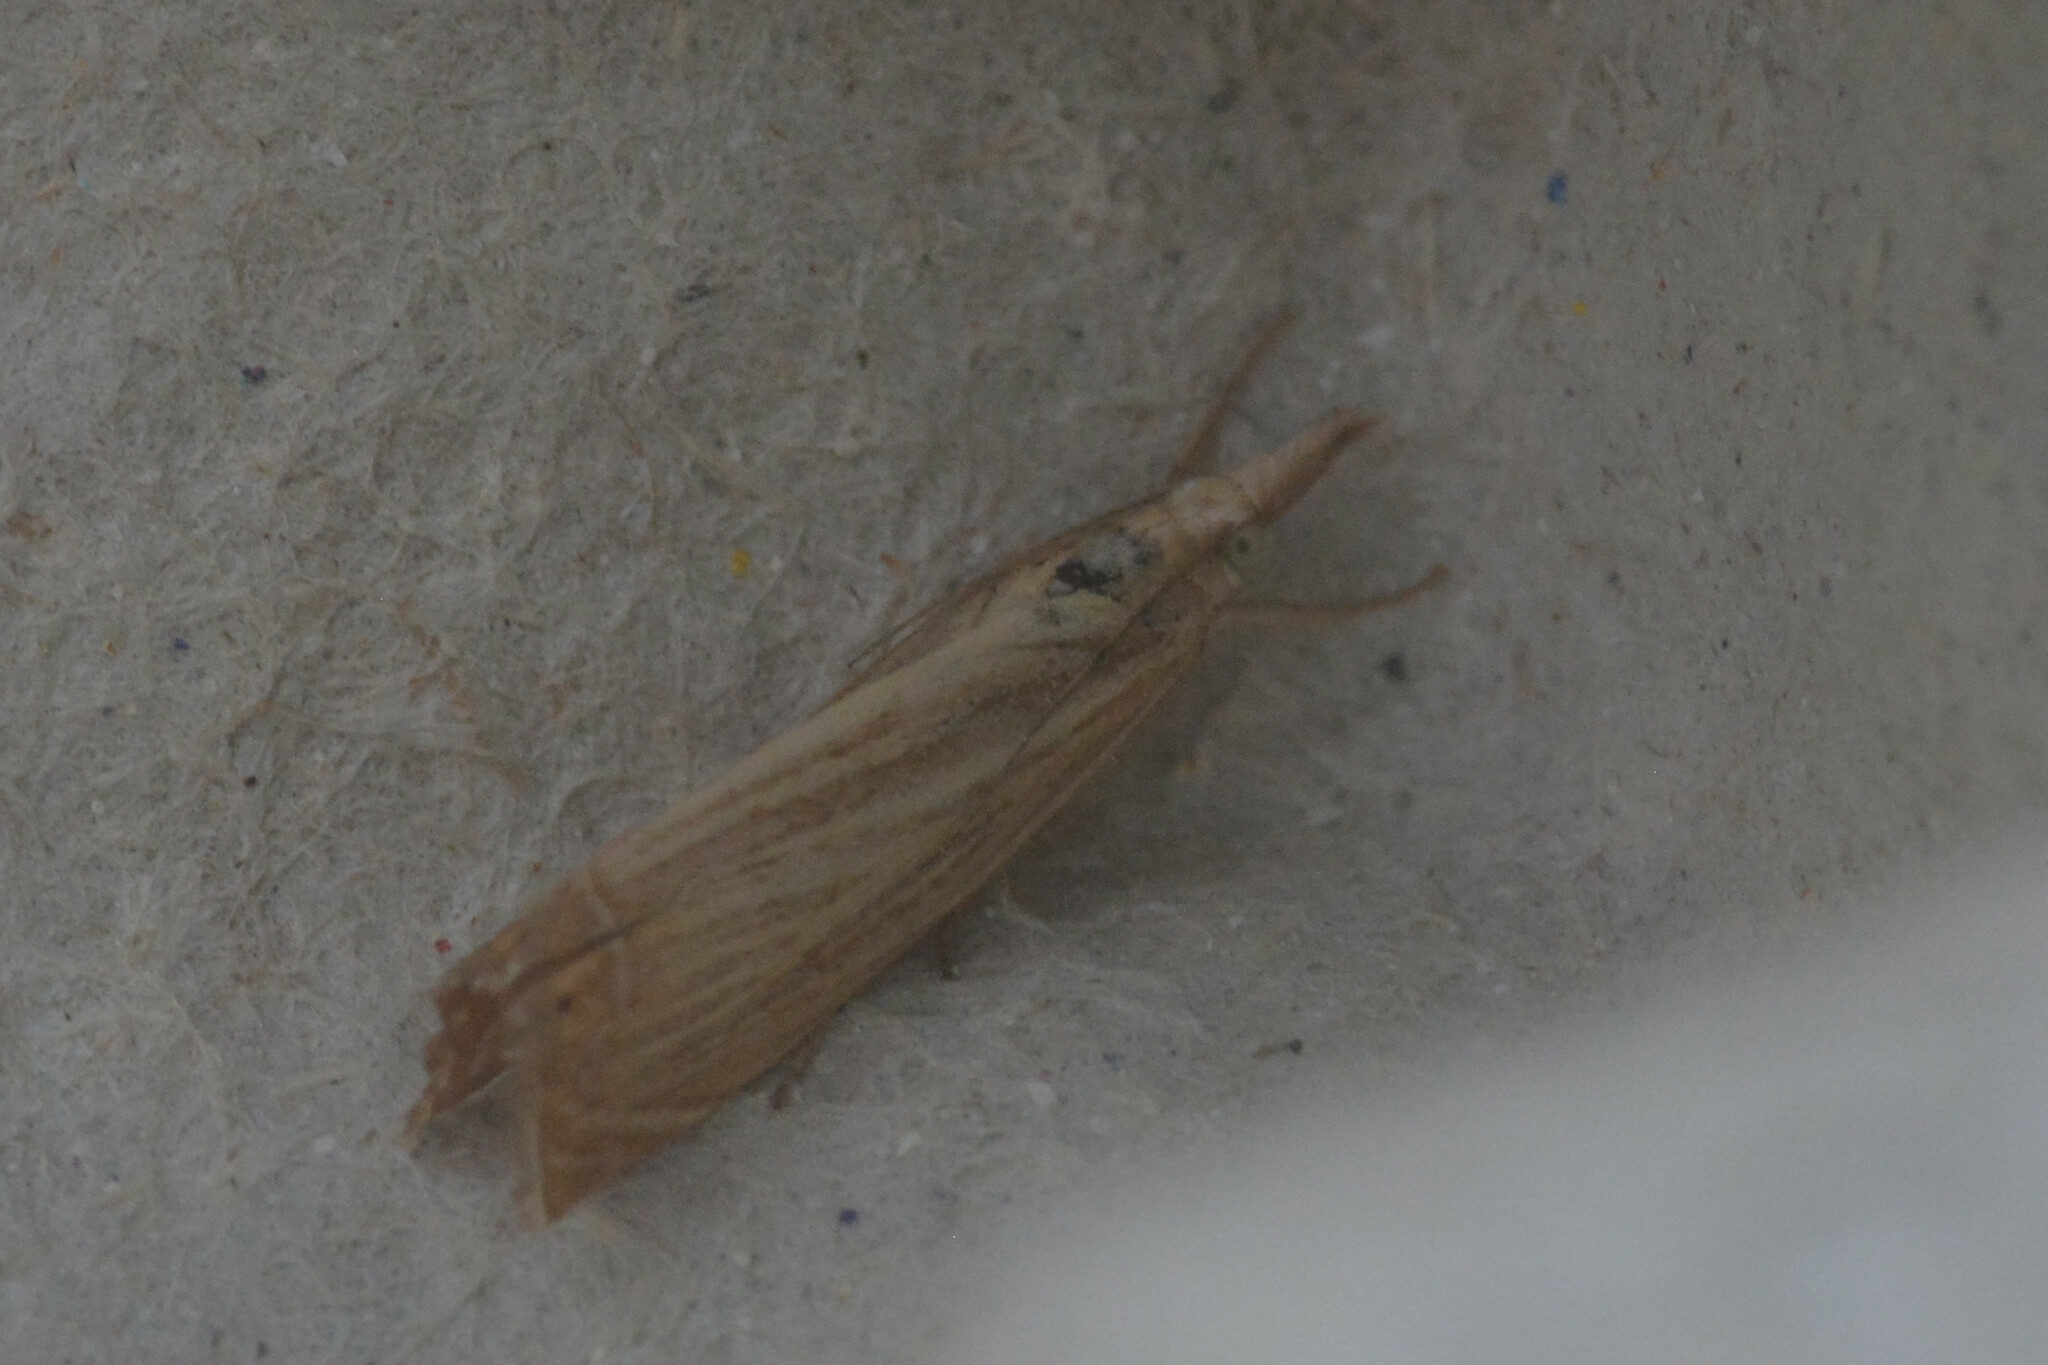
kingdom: Animalia
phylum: Arthropoda
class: Insecta
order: Lepidoptera
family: Crambidae
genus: Chrysoteuchia
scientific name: Chrysoteuchia culmella
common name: Garden grass-veneer
